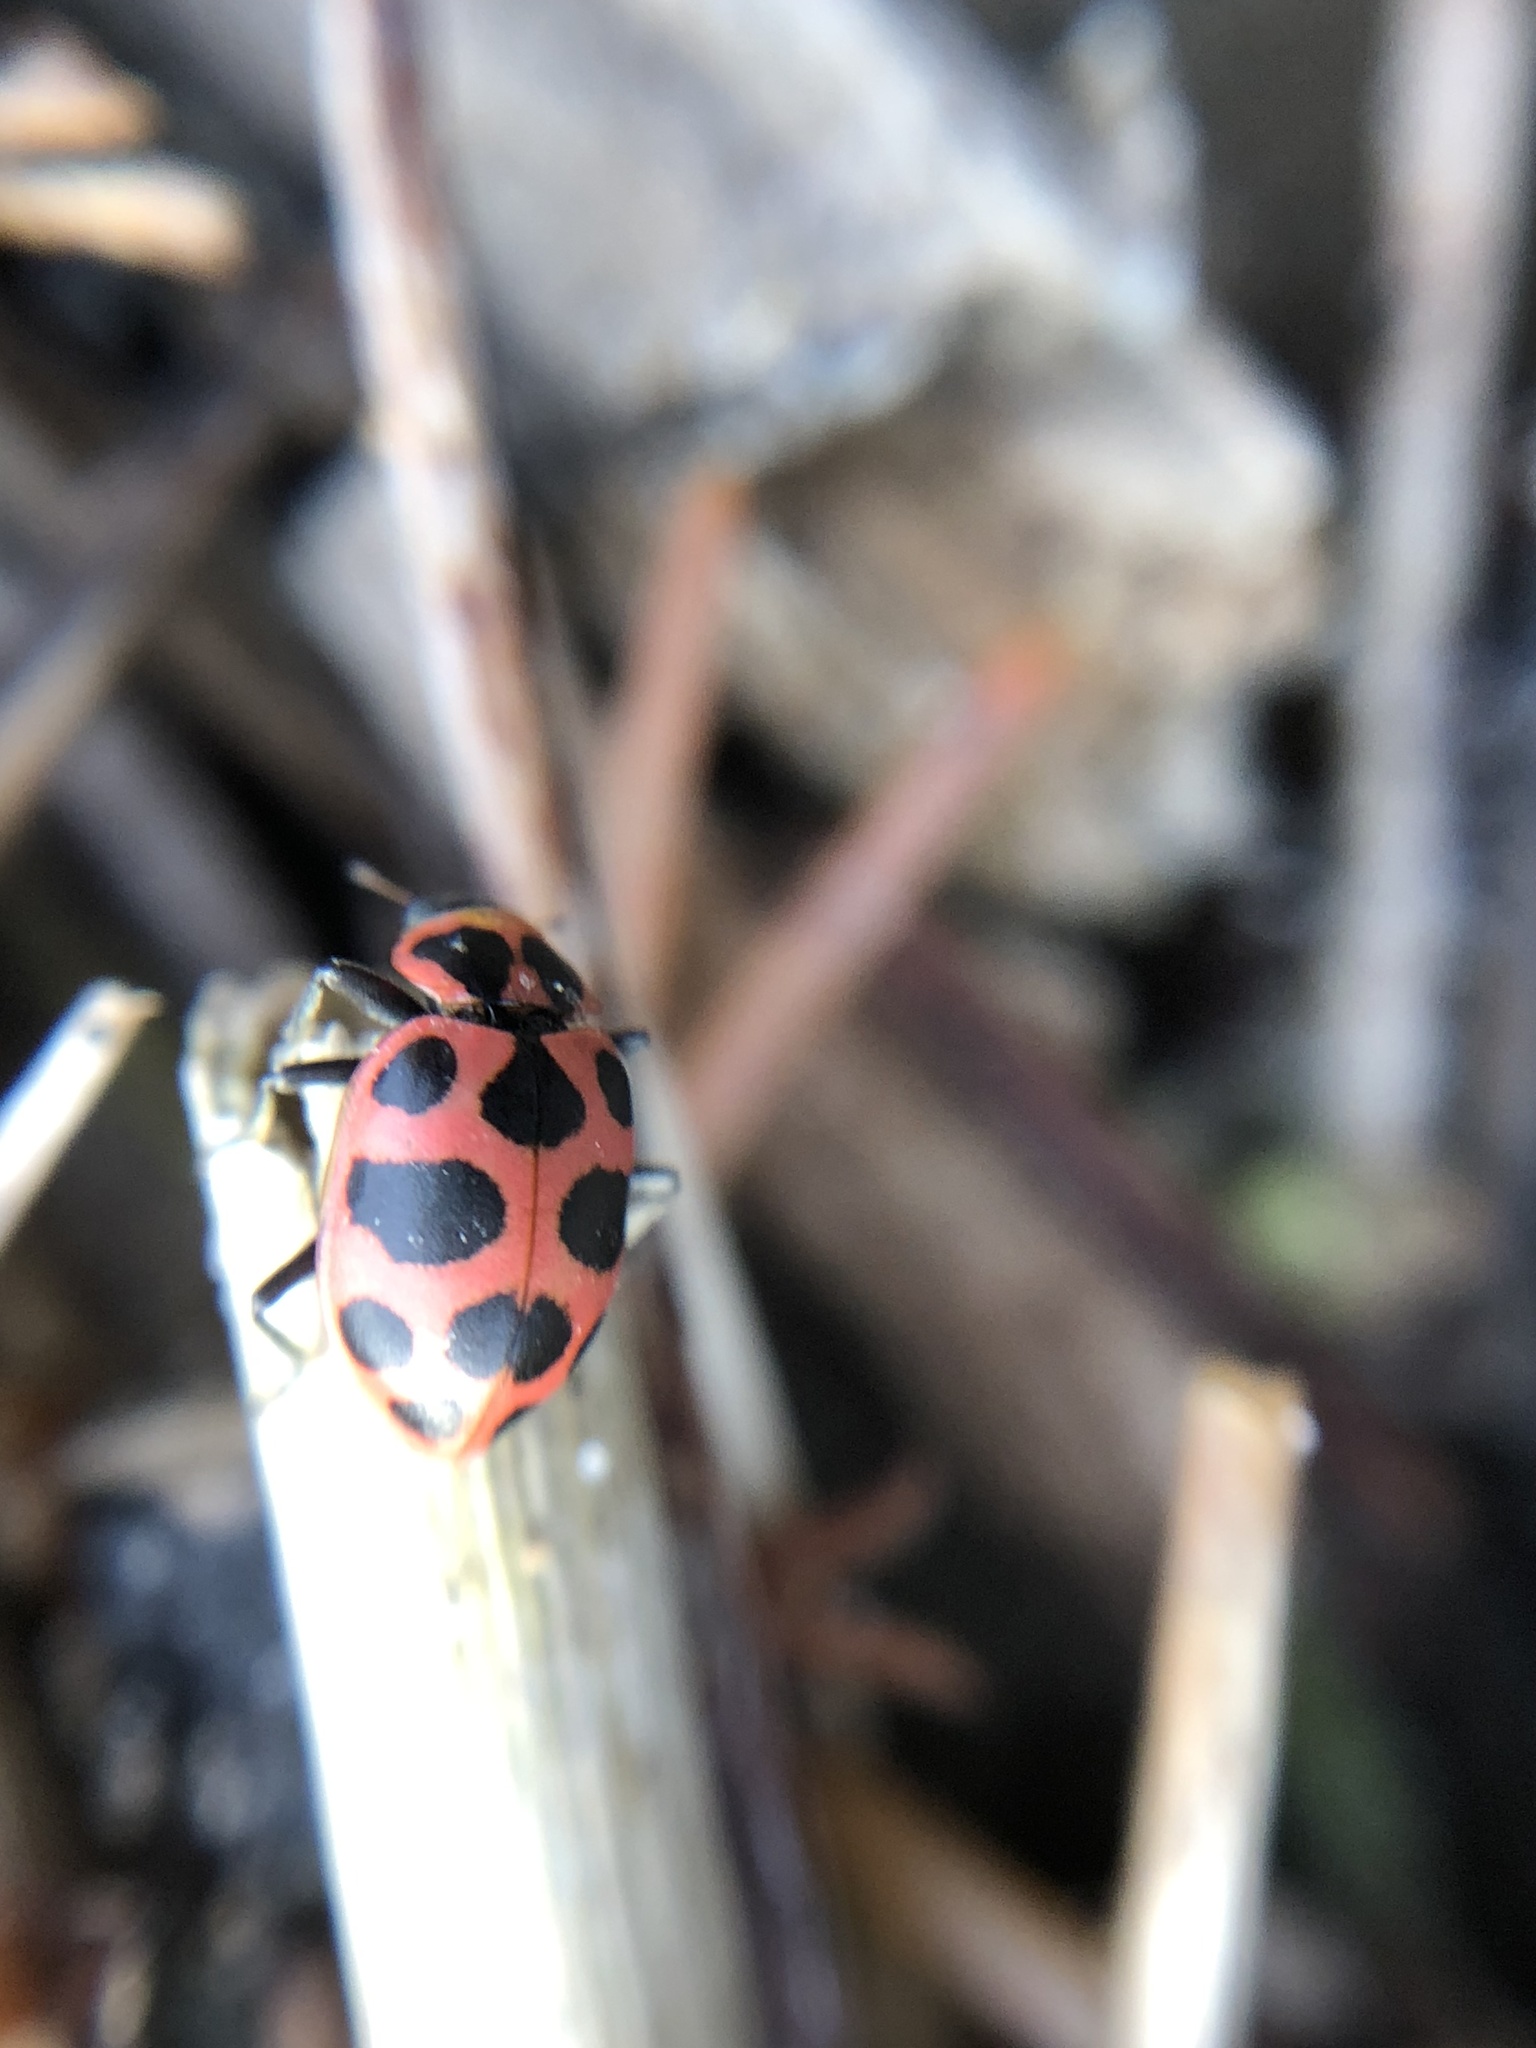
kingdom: Animalia
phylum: Arthropoda
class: Insecta
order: Coleoptera
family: Coccinellidae
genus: Coleomegilla
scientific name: Coleomegilla maculata
